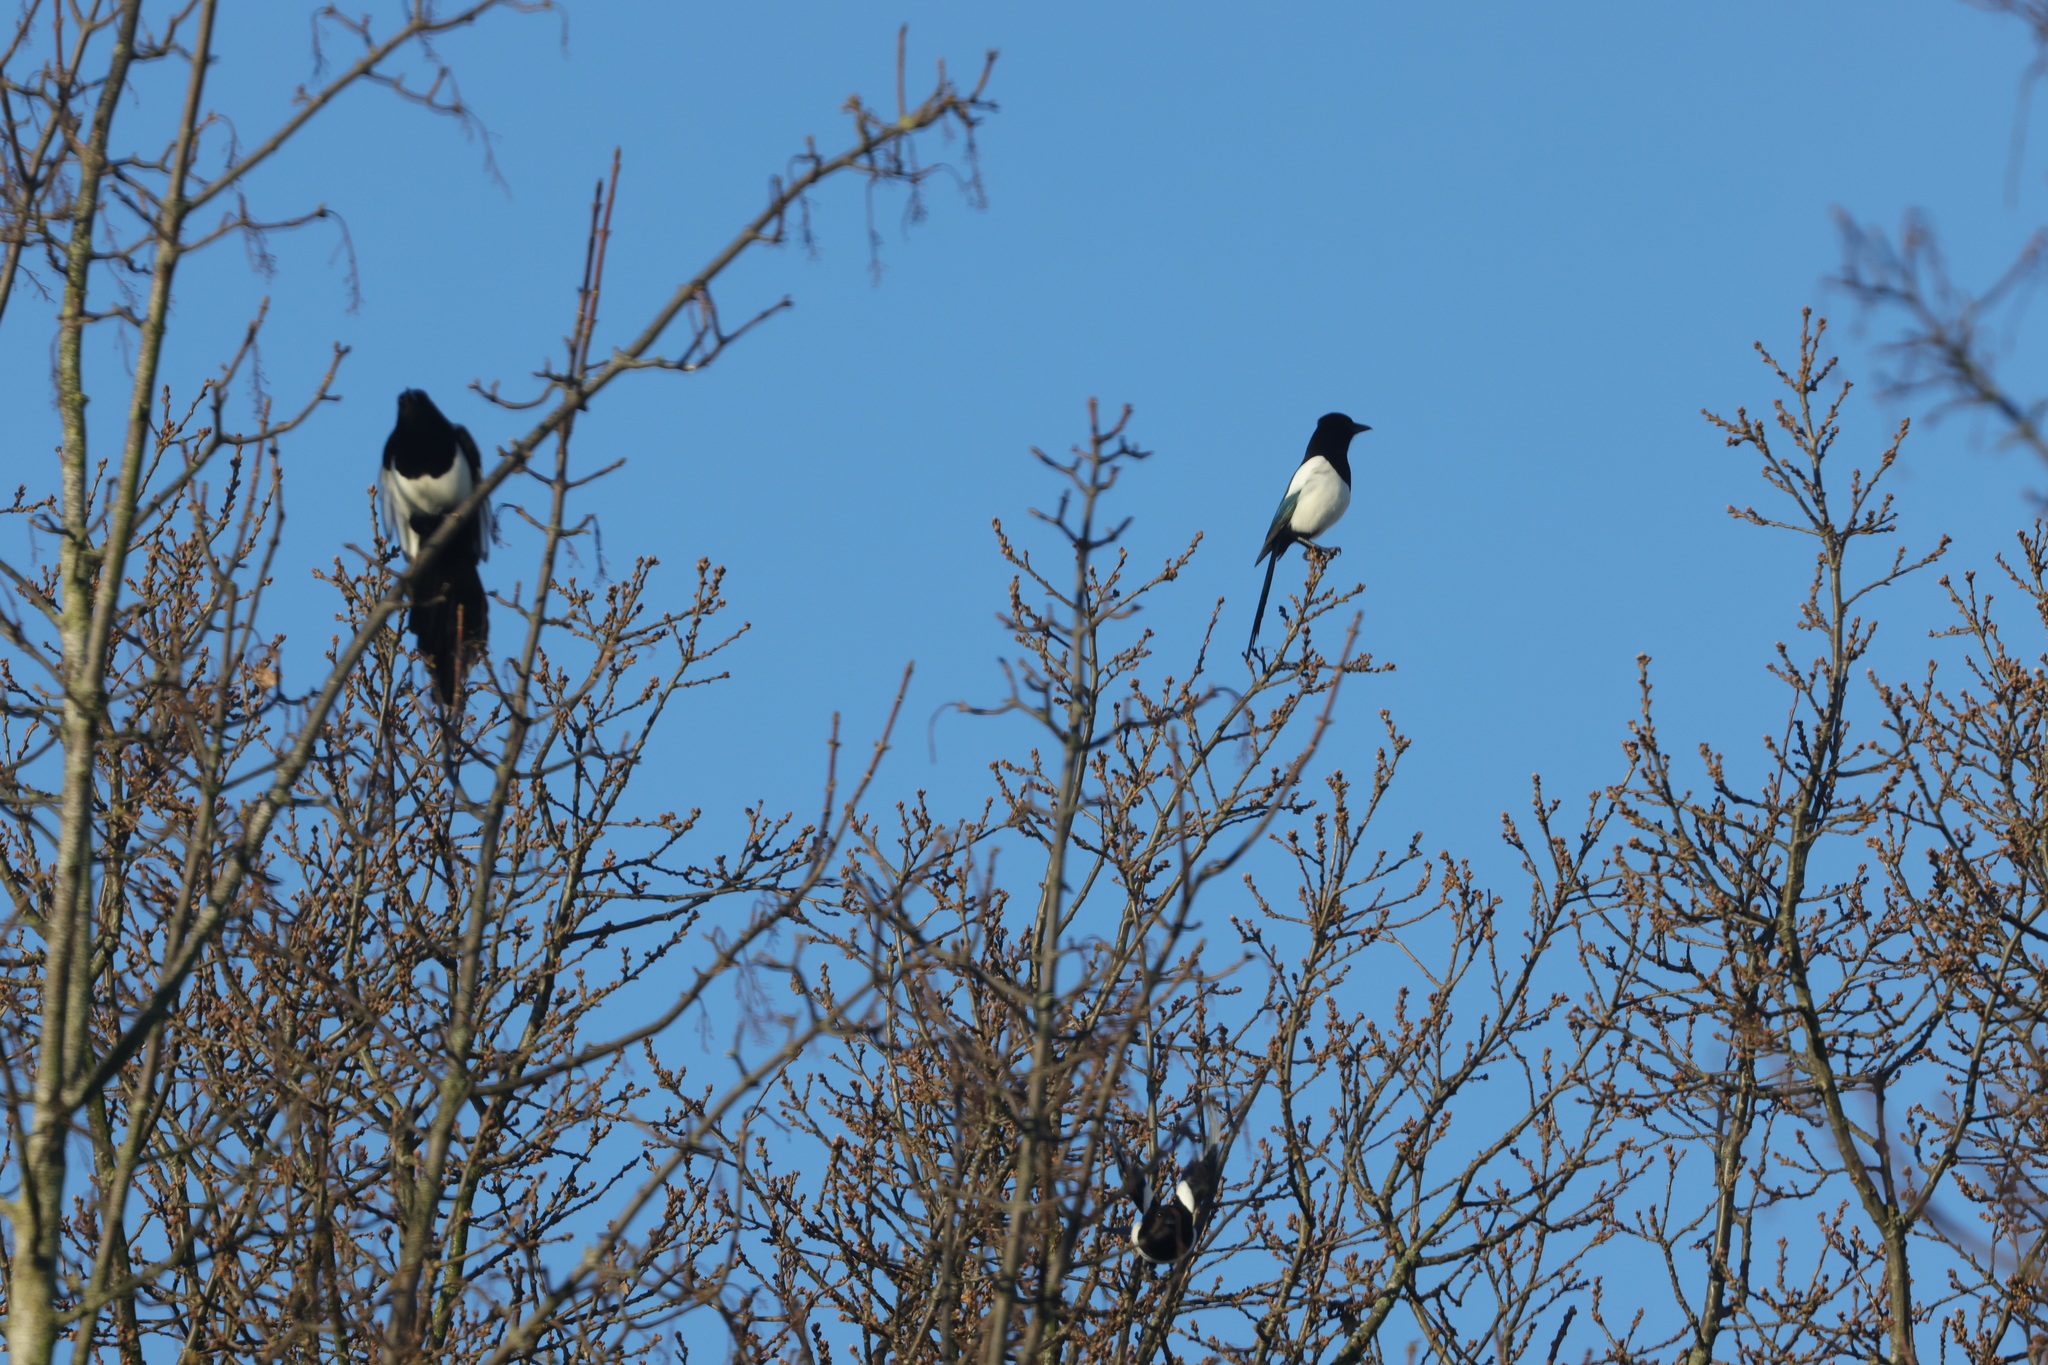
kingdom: Animalia
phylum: Chordata
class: Aves
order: Passeriformes
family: Corvidae
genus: Pica
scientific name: Pica pica
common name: Eurasian magpie
